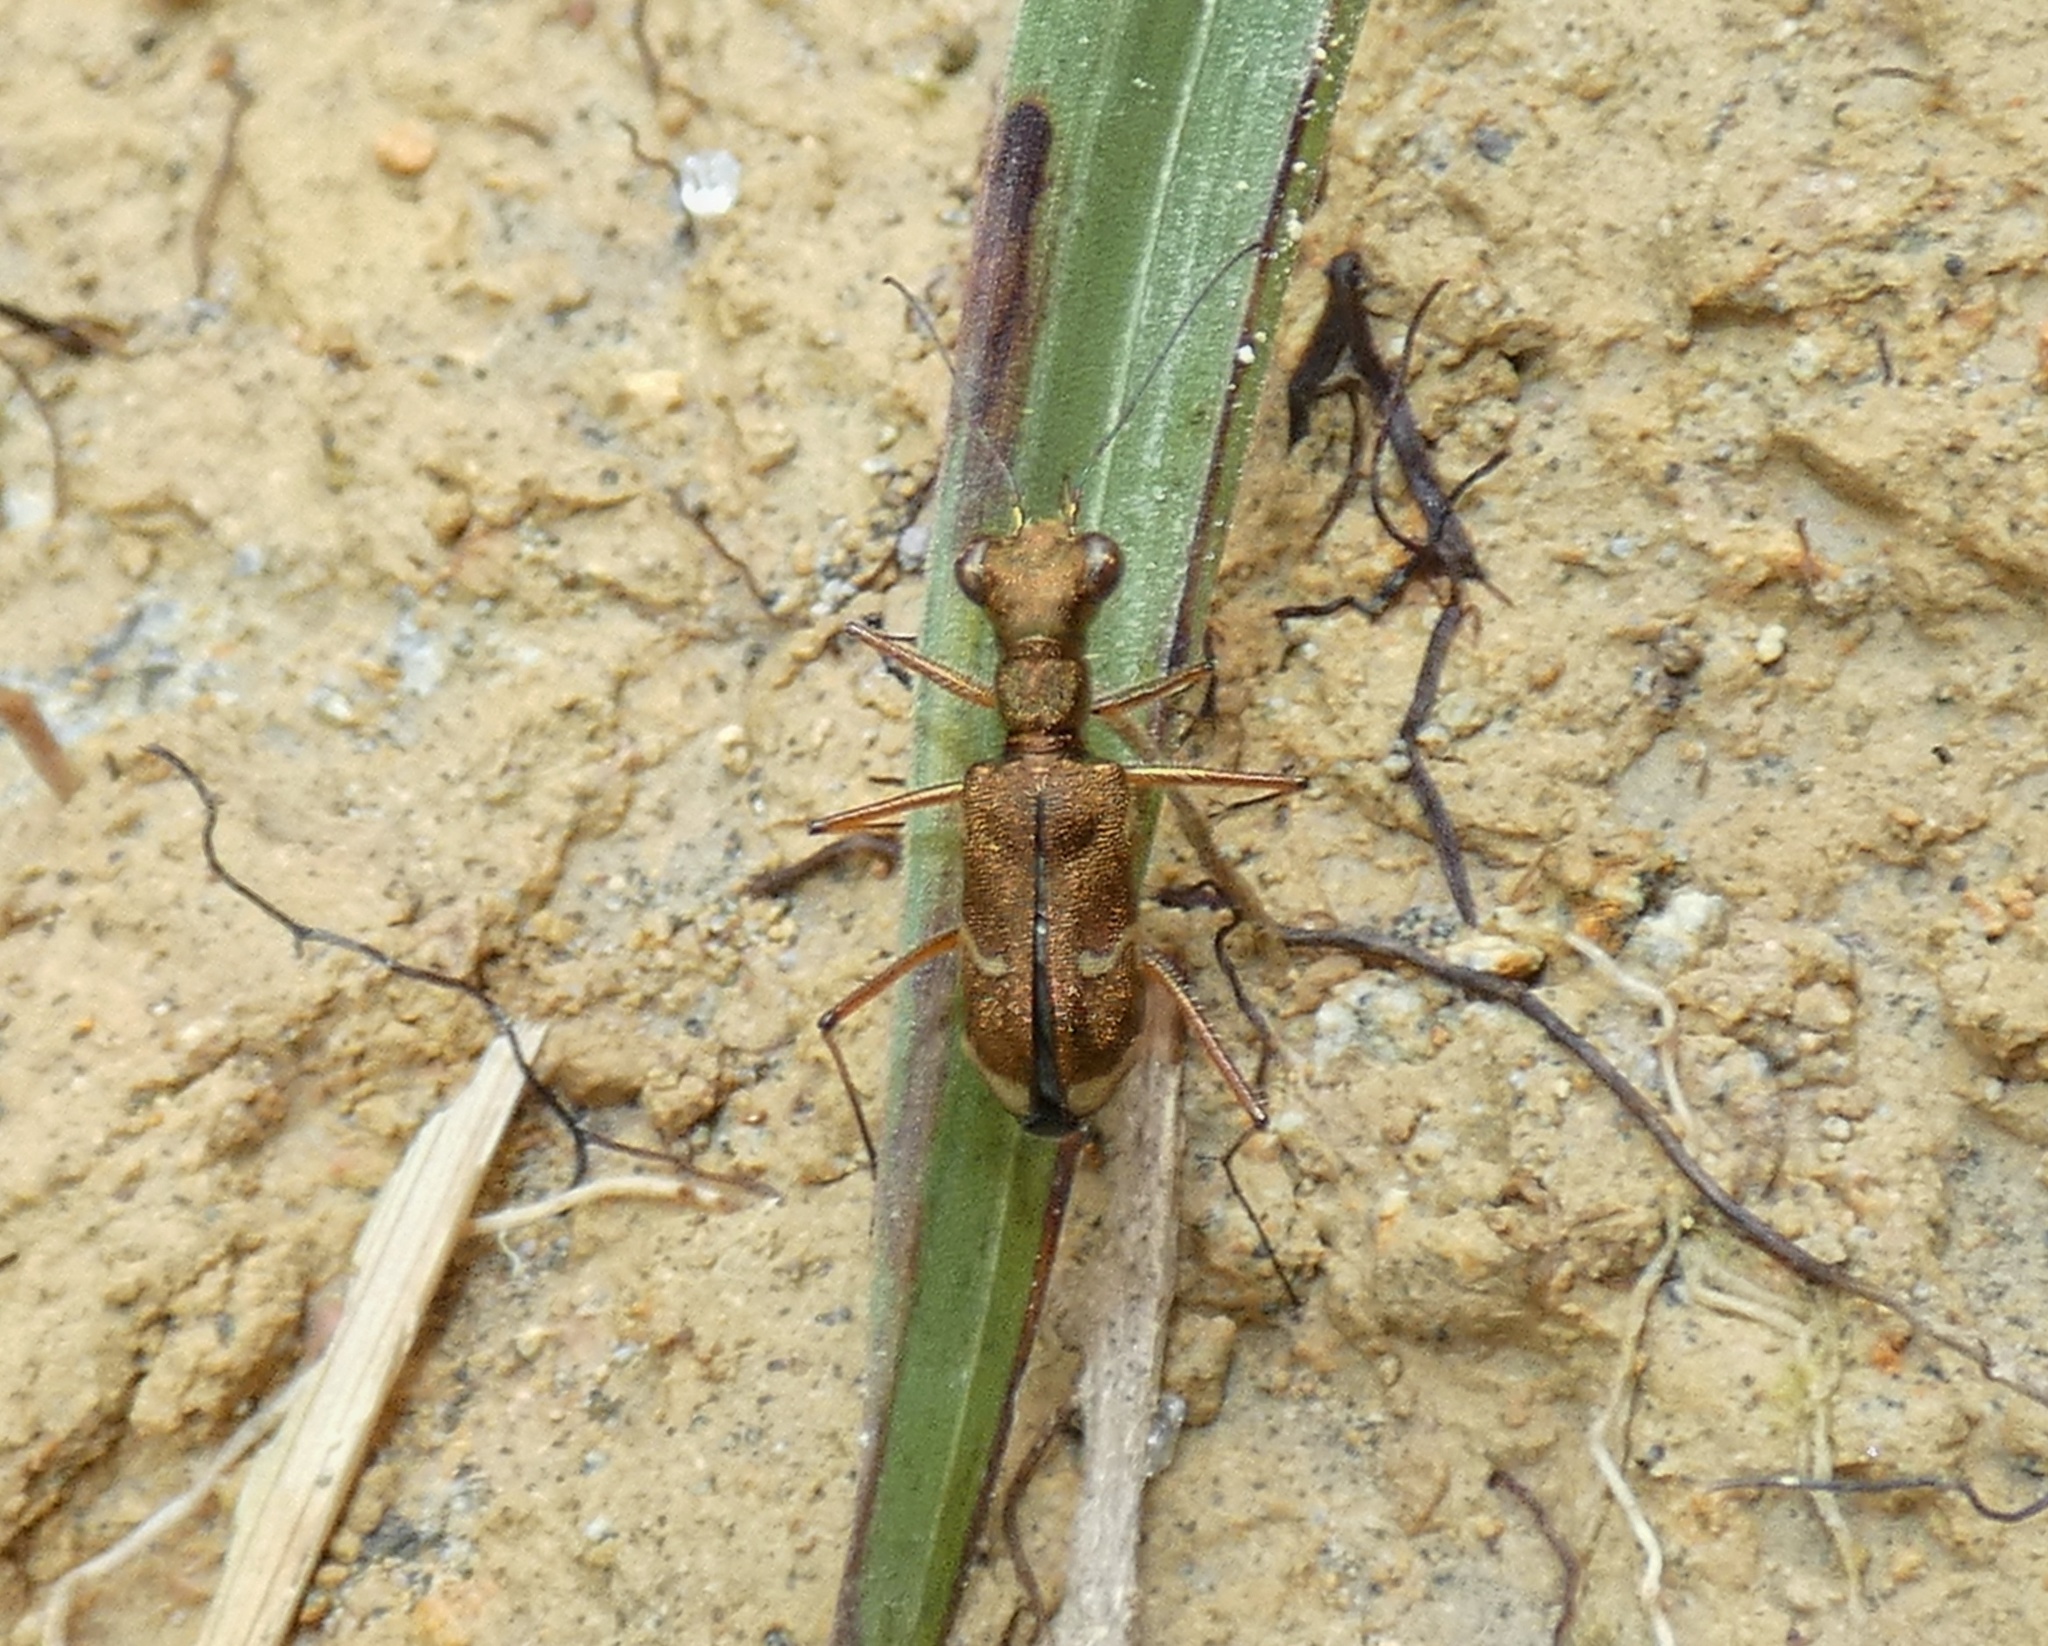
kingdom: Animalia
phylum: Arthropoda
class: Insecta
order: Coleoptera
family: Carabidae
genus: Pentacomia
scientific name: Pentacomia cupriventris
